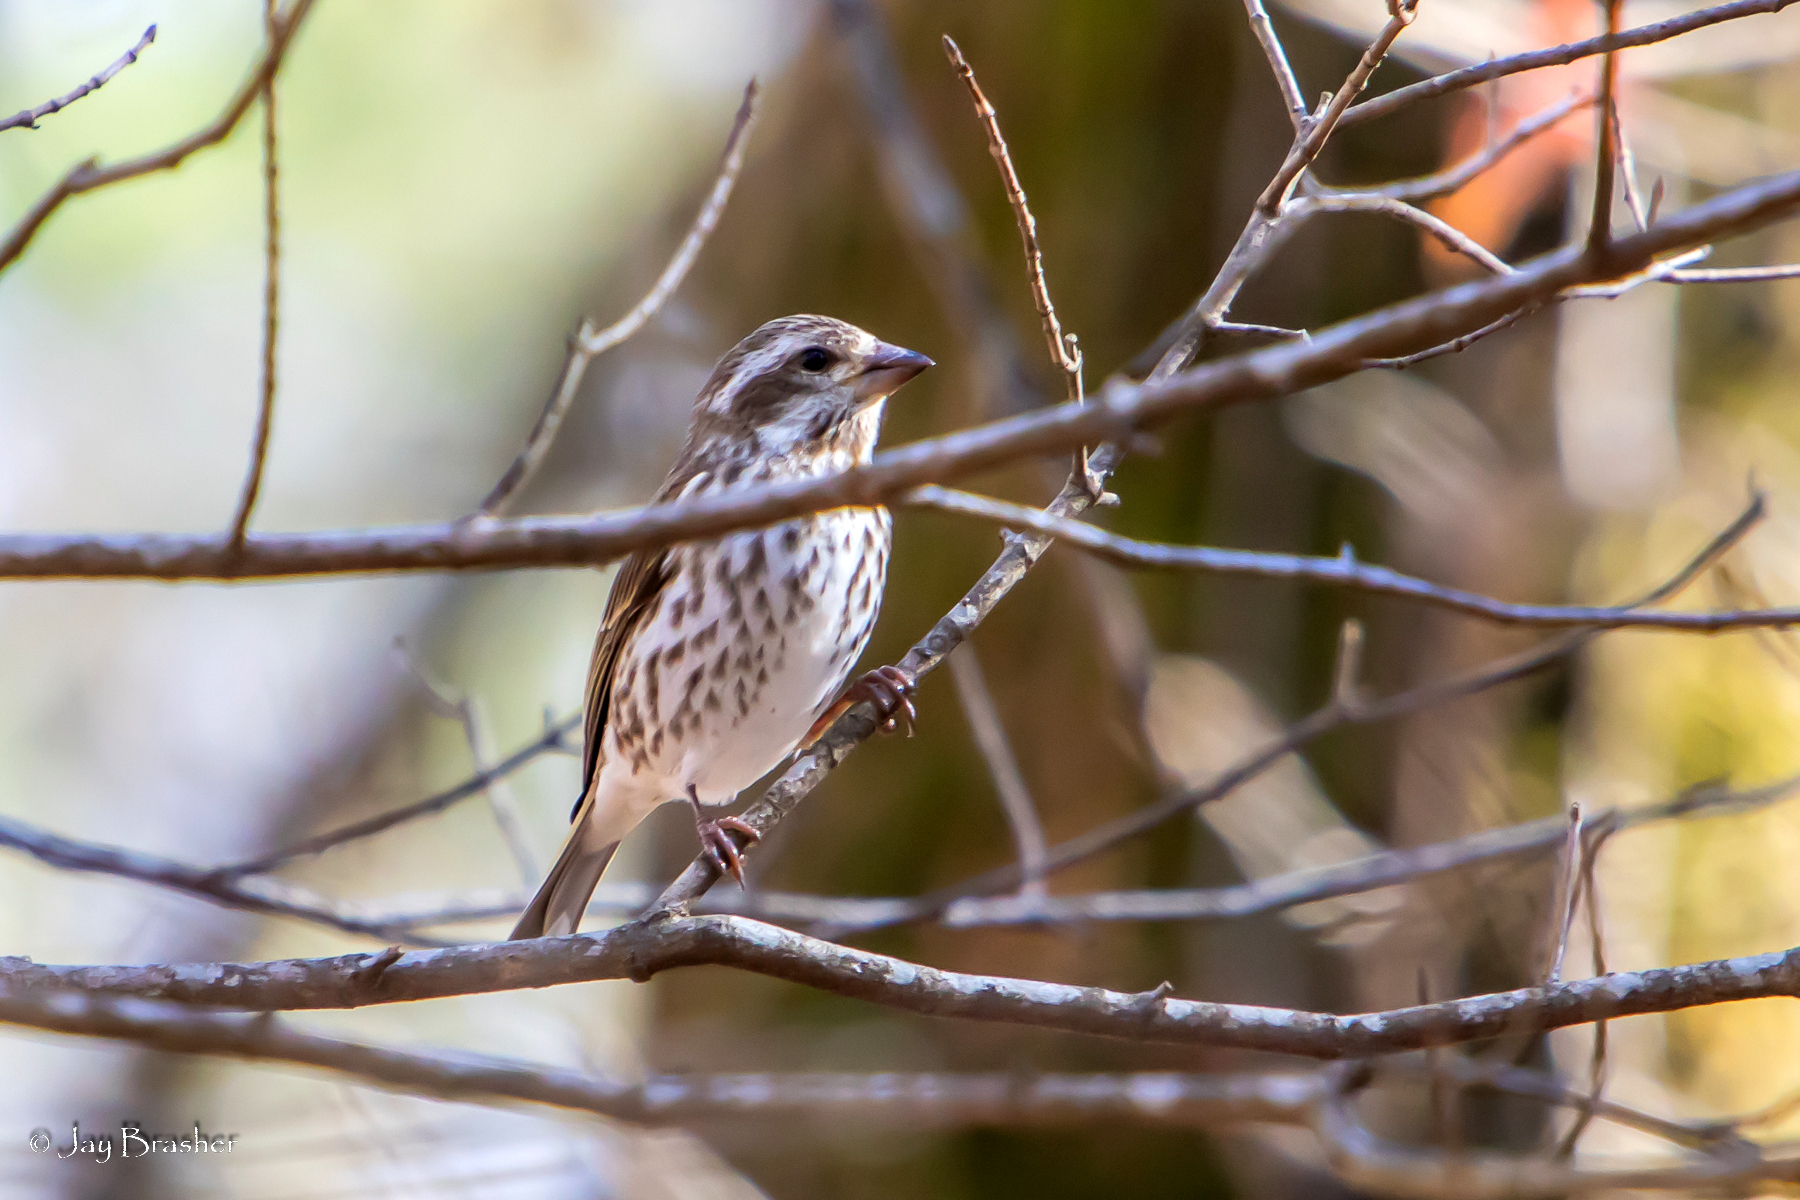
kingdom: Animalia
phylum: Chordata
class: Aves
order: Passeriformes
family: Fringillidae
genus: Haemorhous
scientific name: Haemorhous purpureus
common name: Purple finch
